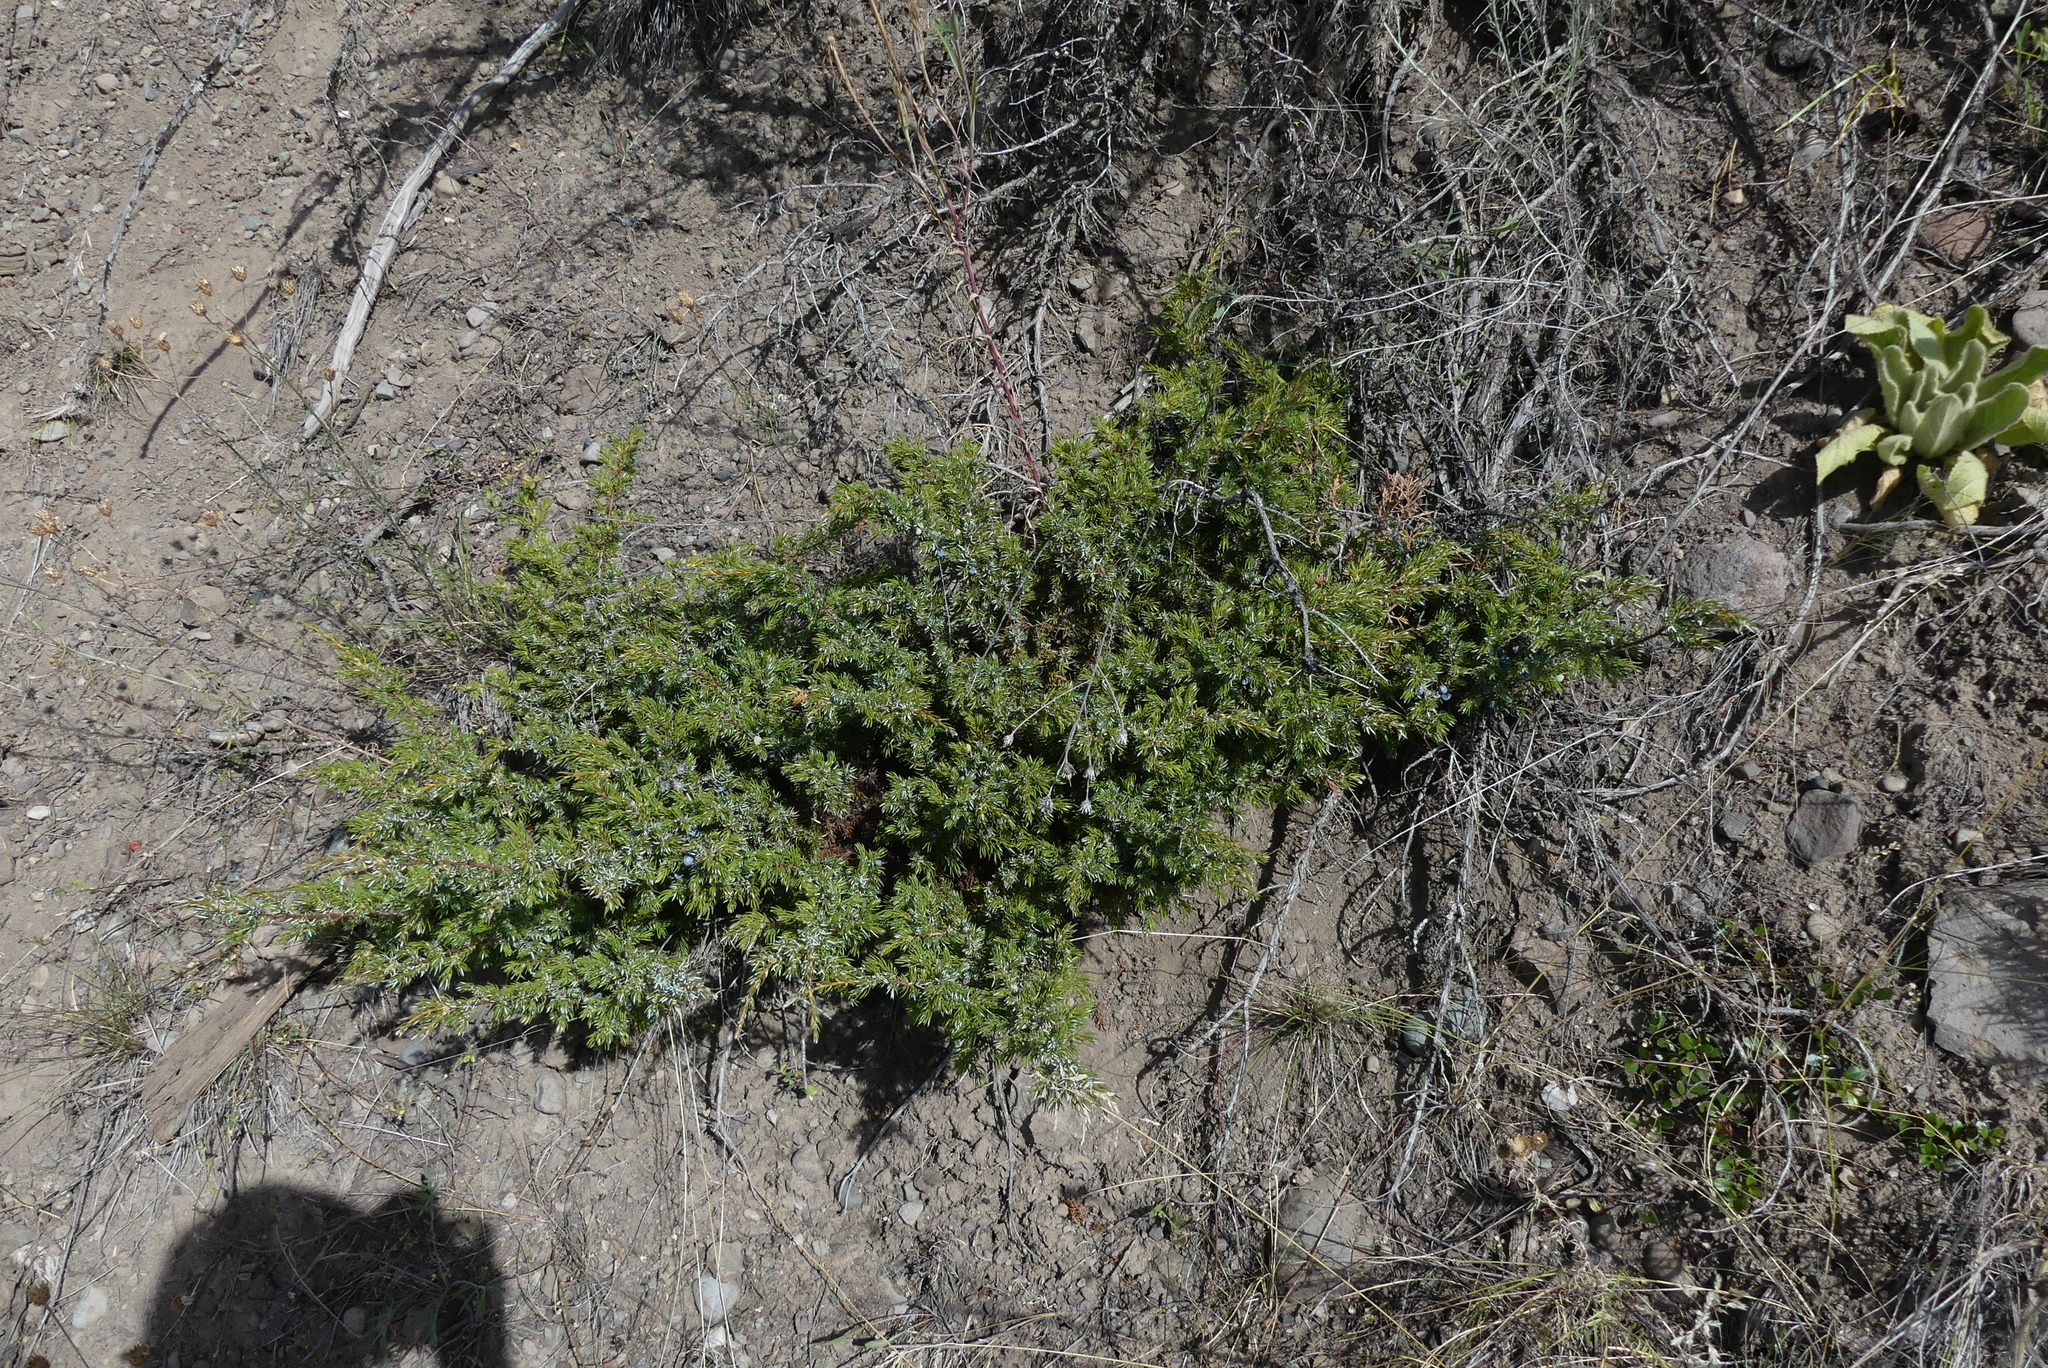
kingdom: Plantae
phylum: Tracheophyta
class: Pinopsida
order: Pinales
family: Cupressaceae
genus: Juniperus
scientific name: Juniperus communis
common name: Common juniper
